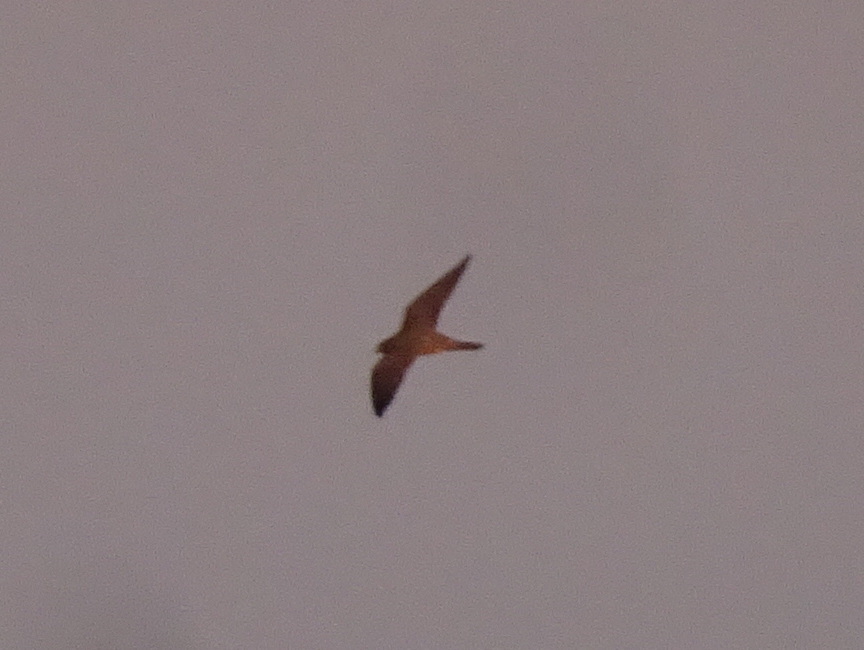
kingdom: Animalia
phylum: Chordata
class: Aves
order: Falconiformes
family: Falconidae
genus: Falco
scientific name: Falco subbuteo
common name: Eurasian hobby
